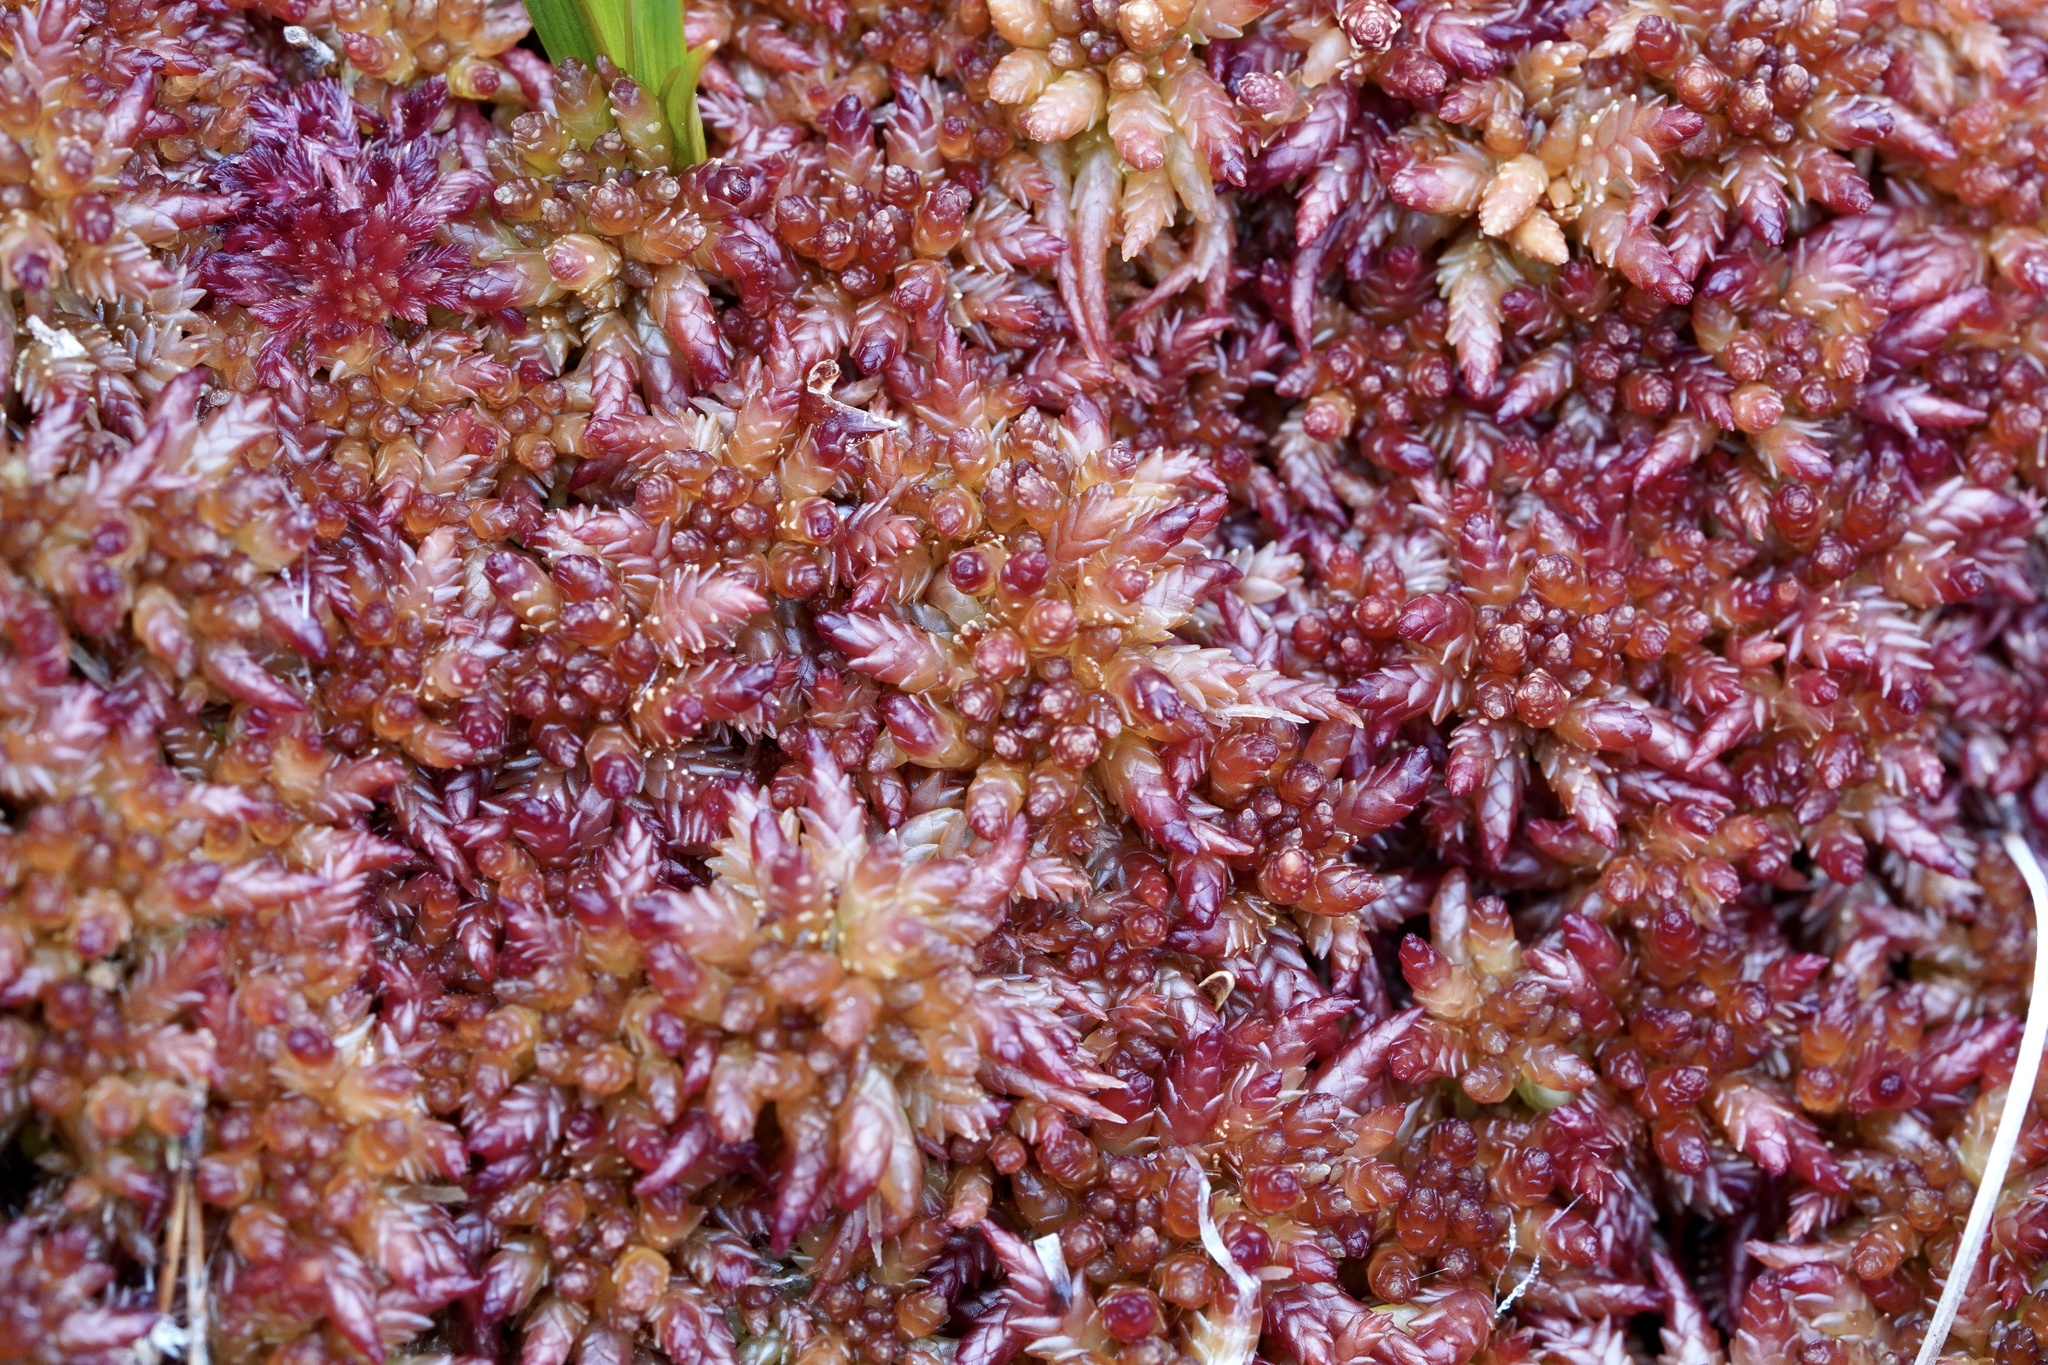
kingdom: Plantae
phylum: Bryophyta
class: Sphagnopsida
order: Sphagnales
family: Sphagnaceae
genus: Sphagnum
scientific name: Sphagnum medium
